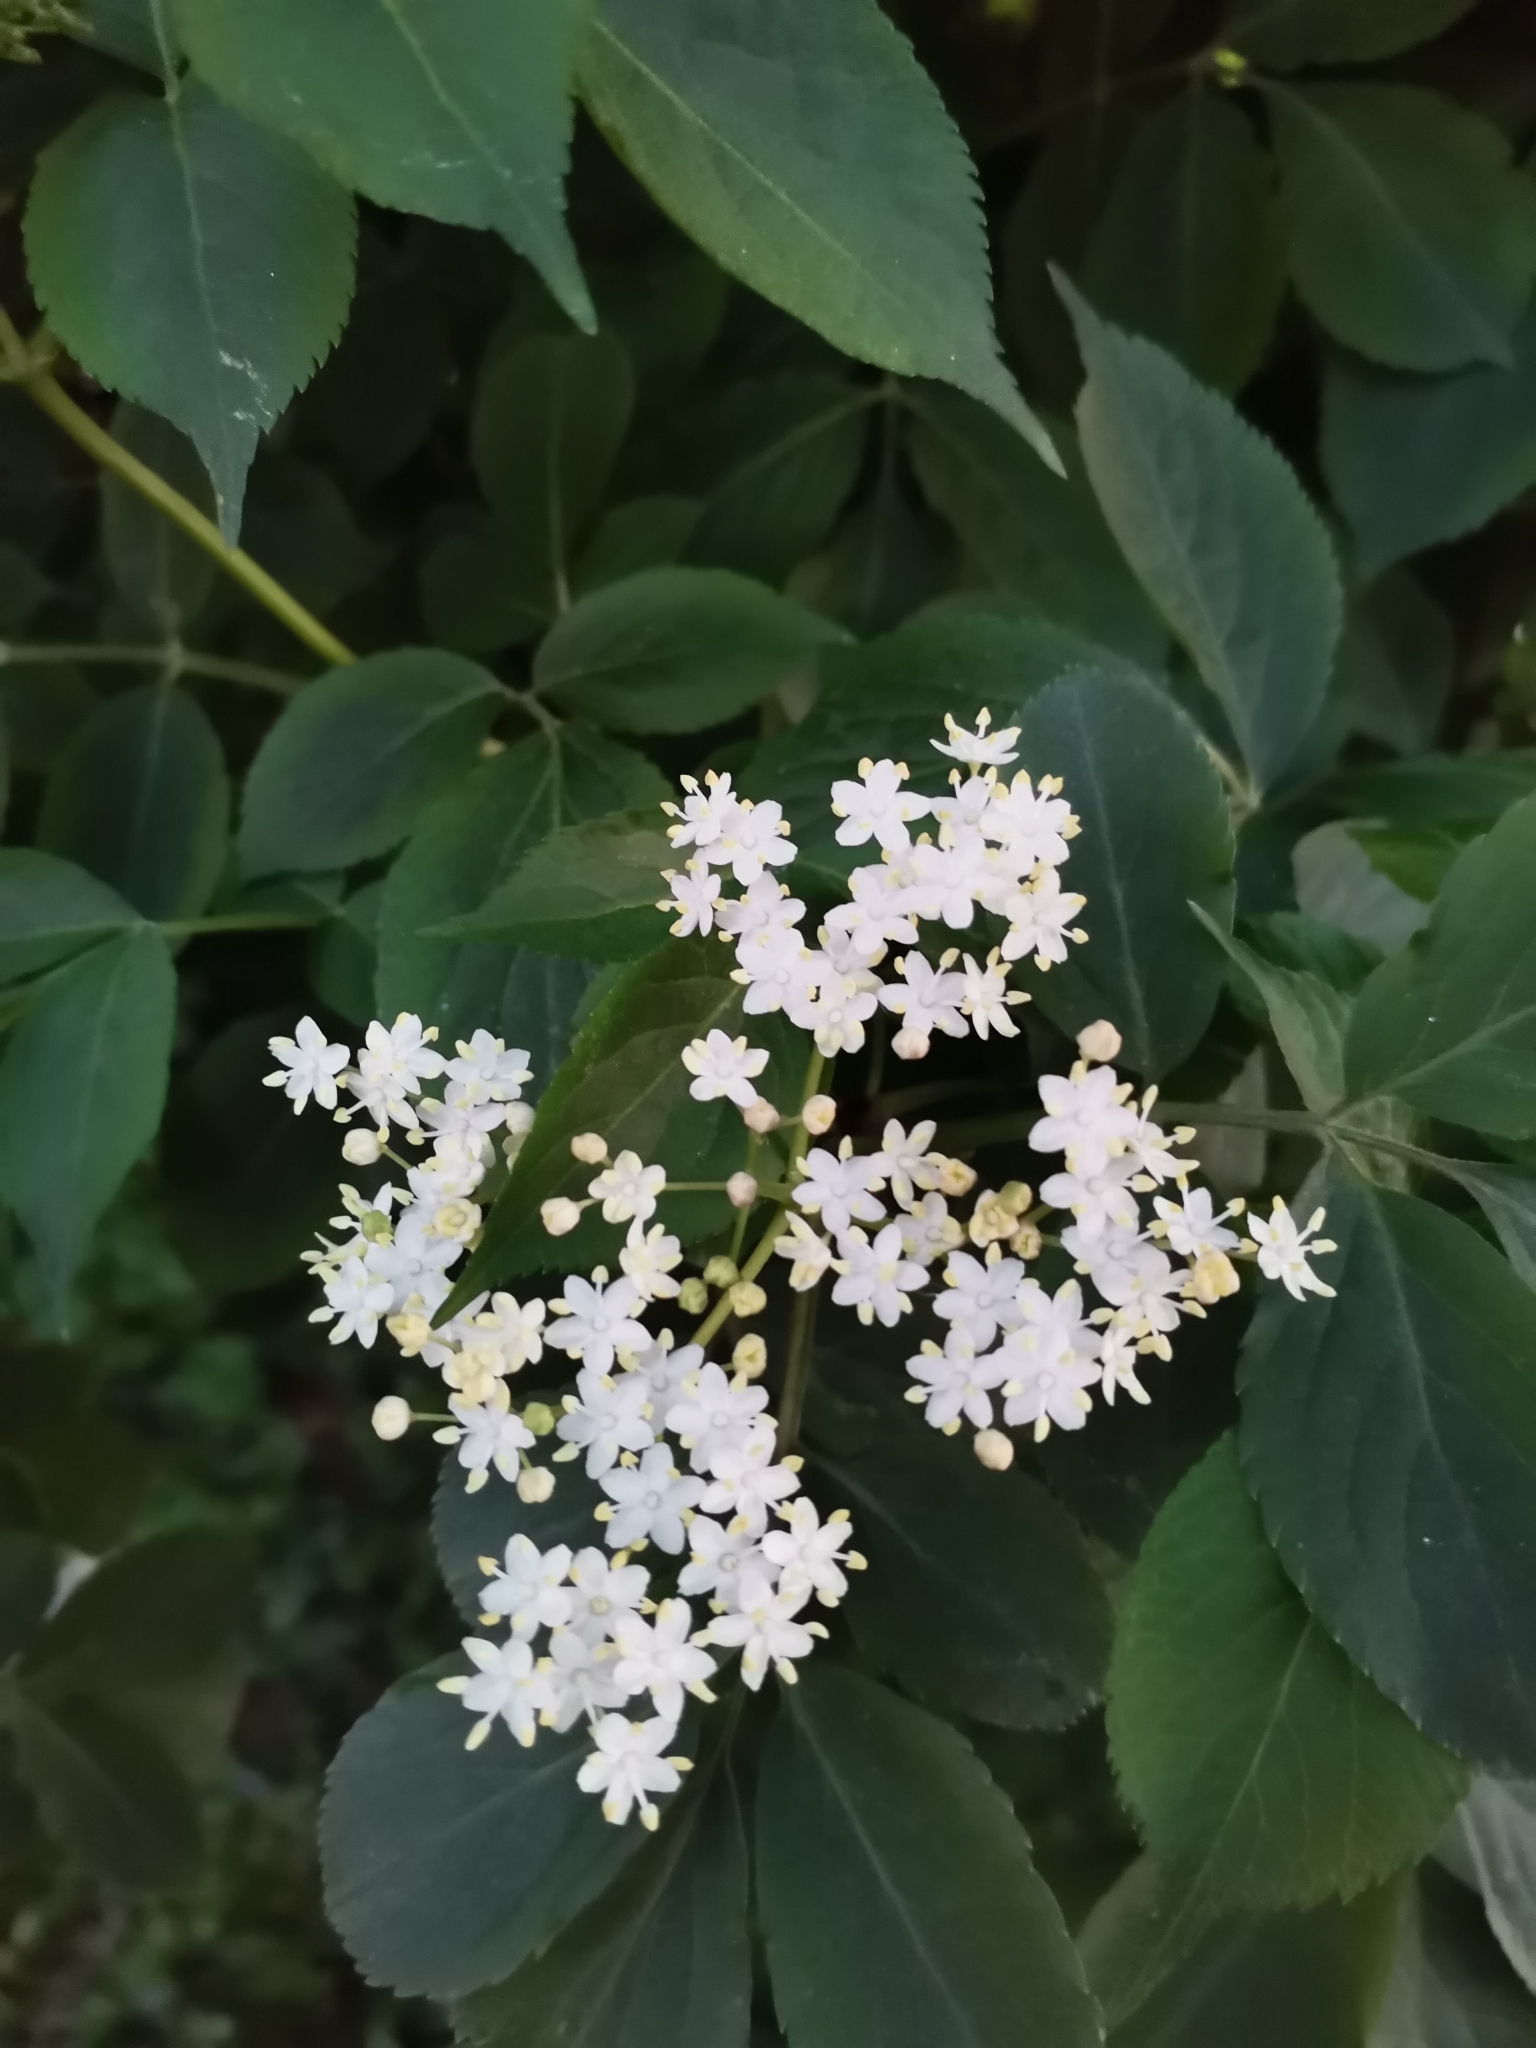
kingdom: Plantae
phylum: Tracheophyta
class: Magnoliopsida
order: Dipsacales
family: Viburnaceae
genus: Sambucus
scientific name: Sambucus nigra
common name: Elder
